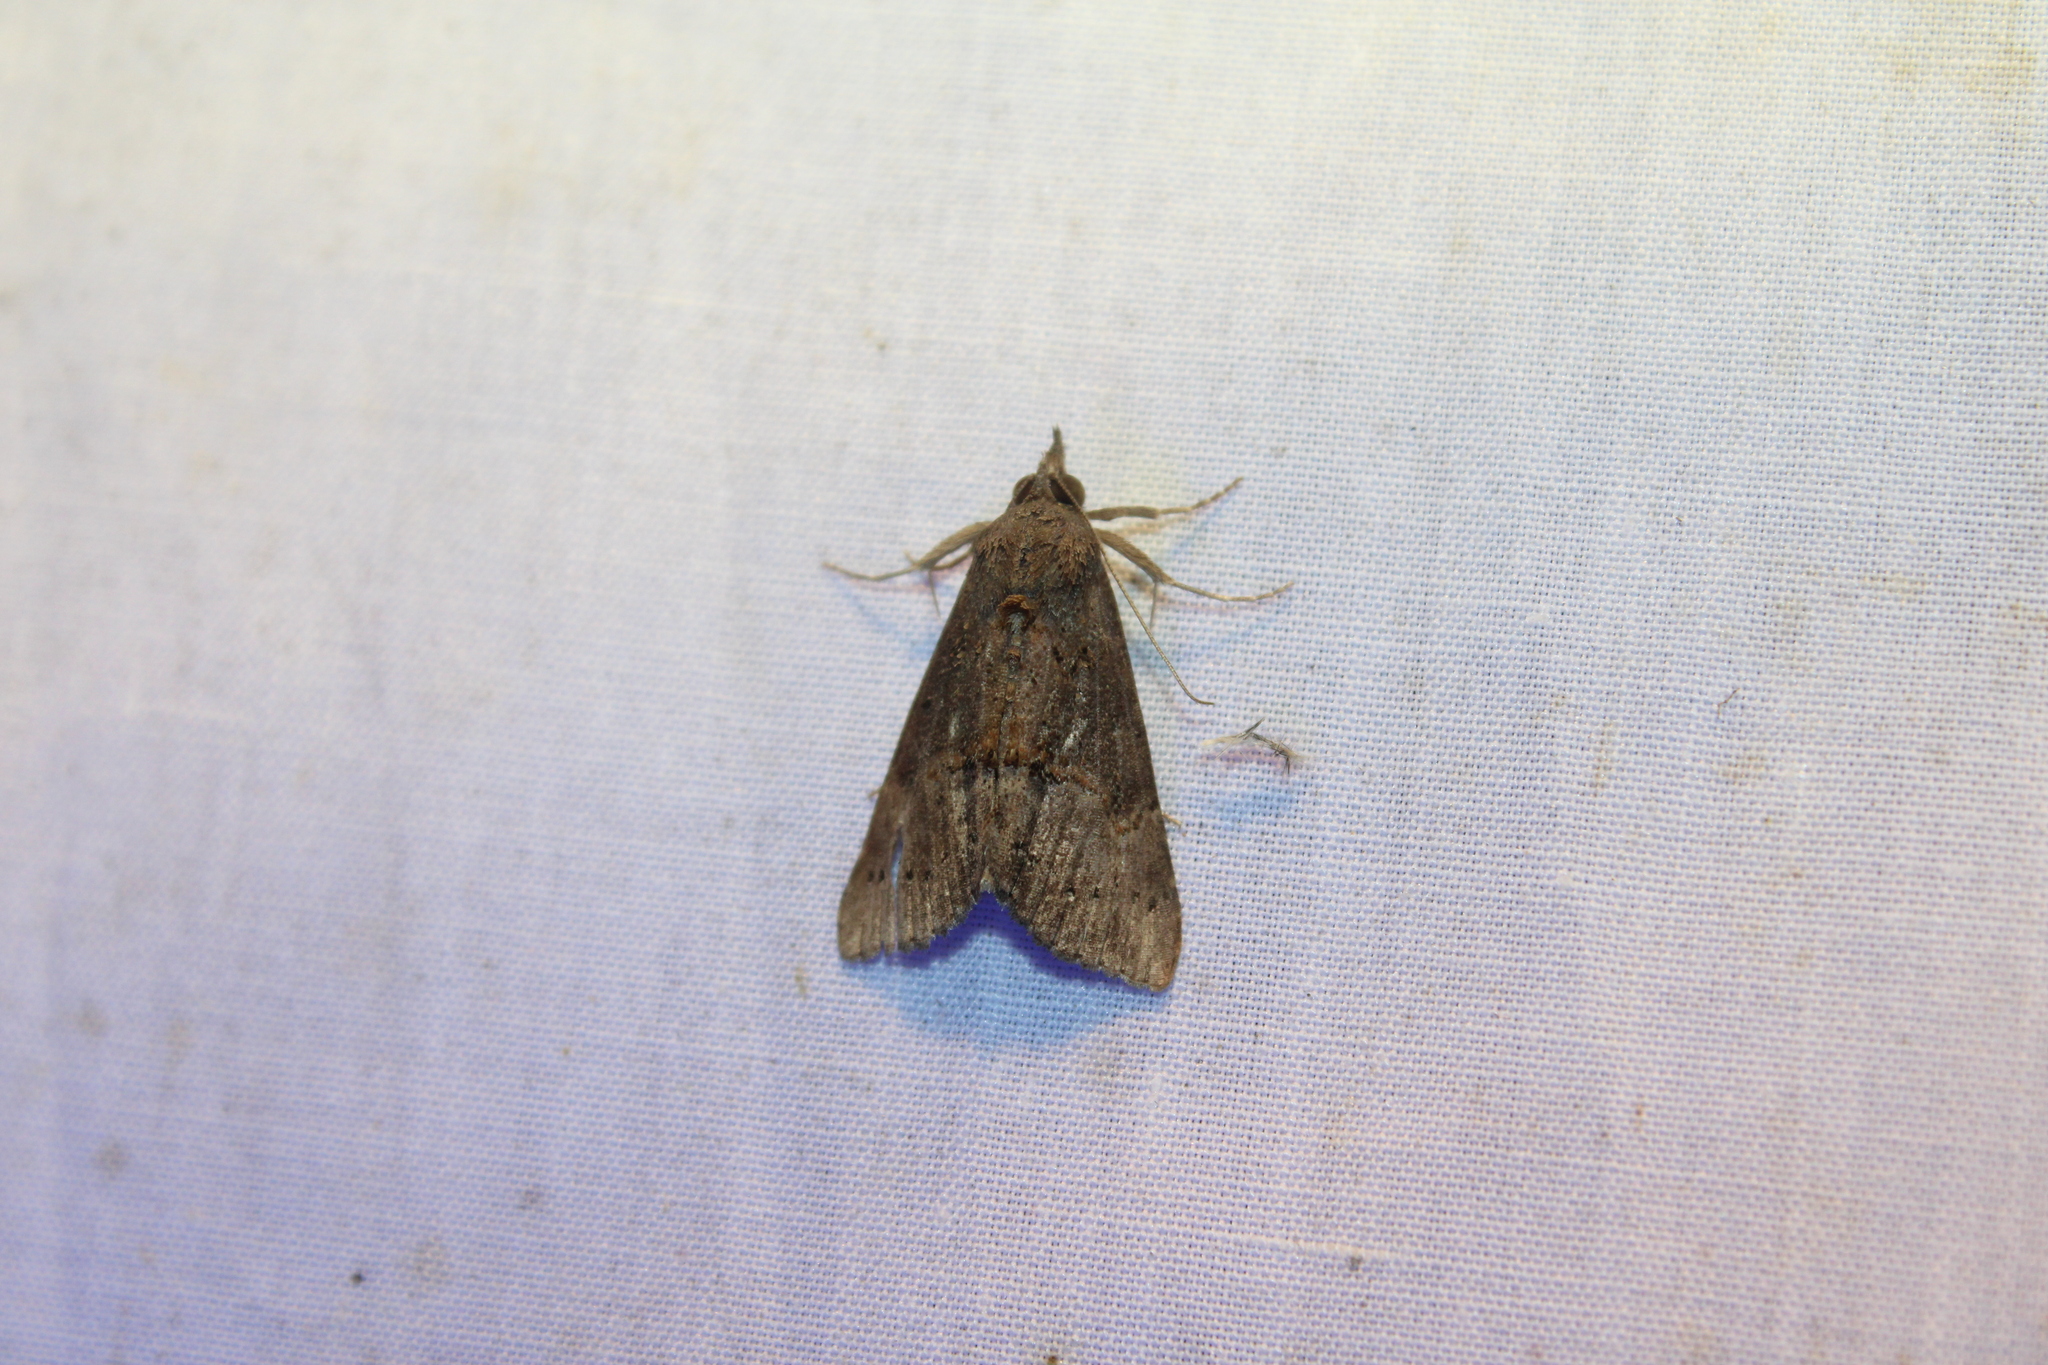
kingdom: Animalia
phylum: Arthropoda
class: Insecta
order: Lepidoptera
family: Erebidae
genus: Hypena
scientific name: Hypena scabra
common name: Green cloverworm
